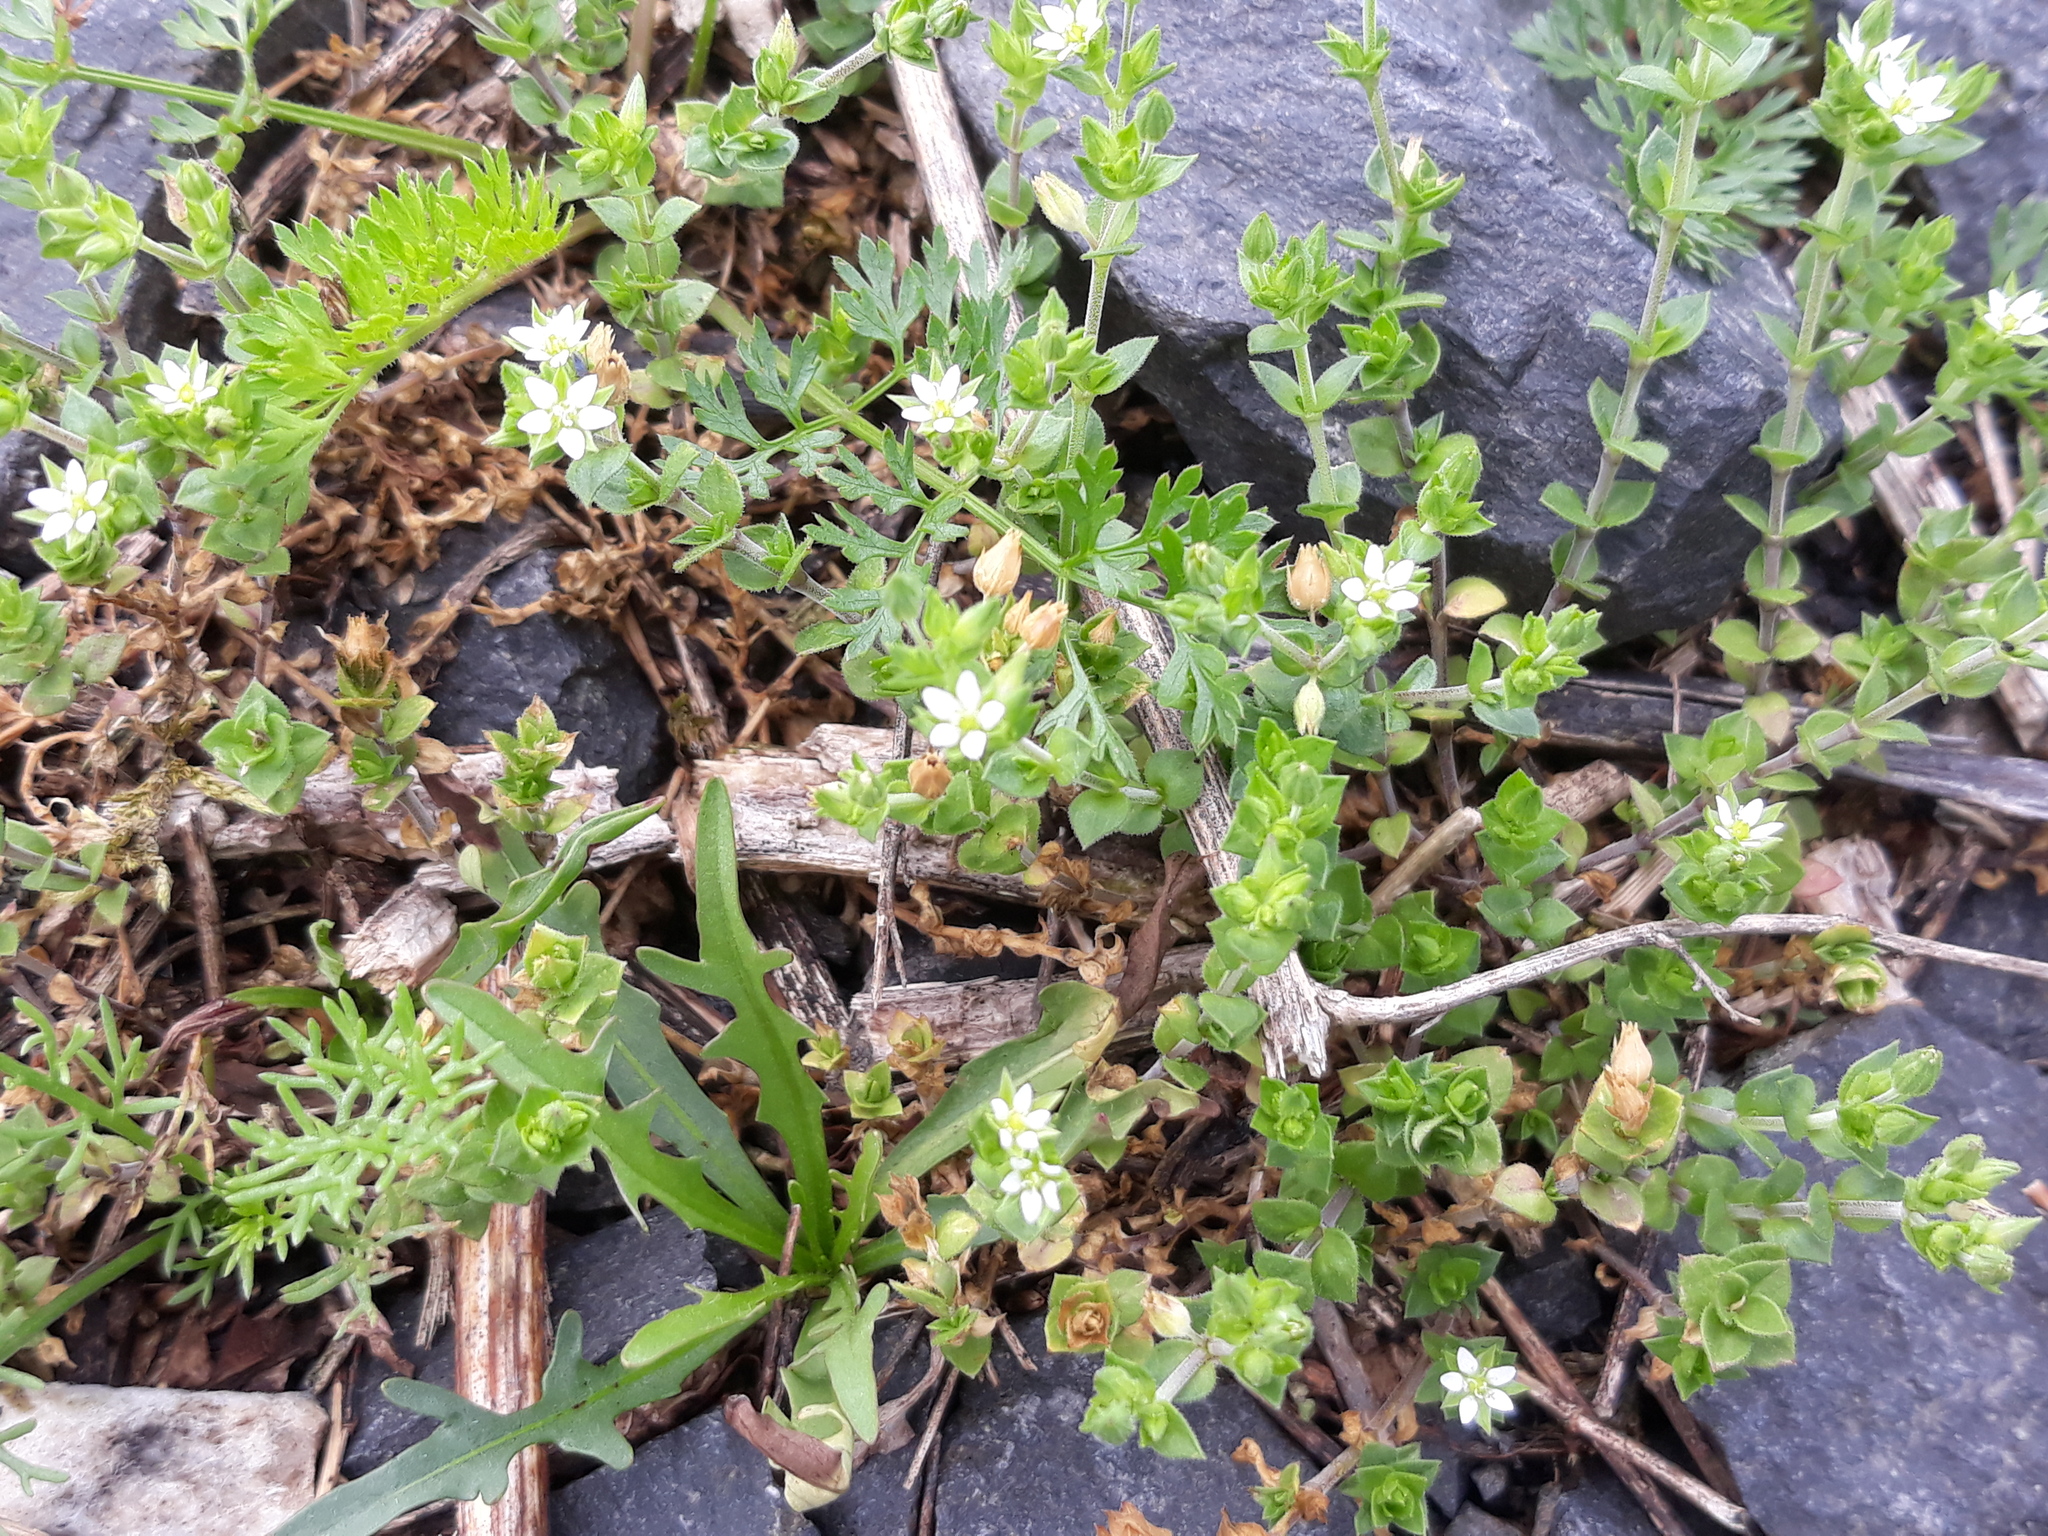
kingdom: Plantae
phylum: Tracheophyta
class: Magnoliopsida
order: Caryophyllales
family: Caryophyllaceae
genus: Arenaria
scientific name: Arenaria serpyllifolia
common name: Thyme-leaved sandwort
